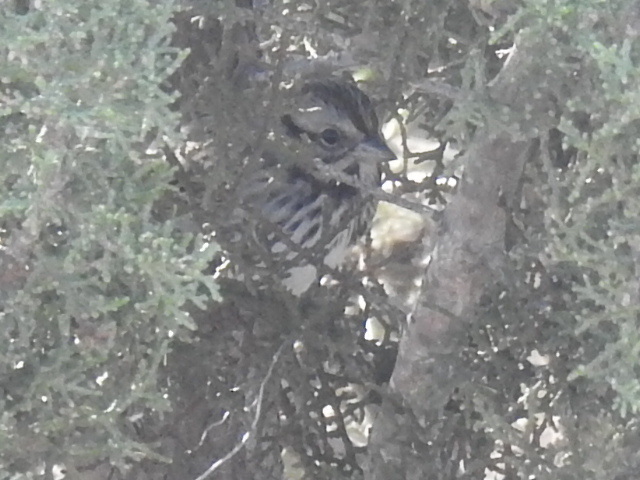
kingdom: Animalia
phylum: Chordata
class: Aves
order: Passeriformes
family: Passerellidae
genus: Melospiza
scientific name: Melospiza melodia
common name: Song sparrow
